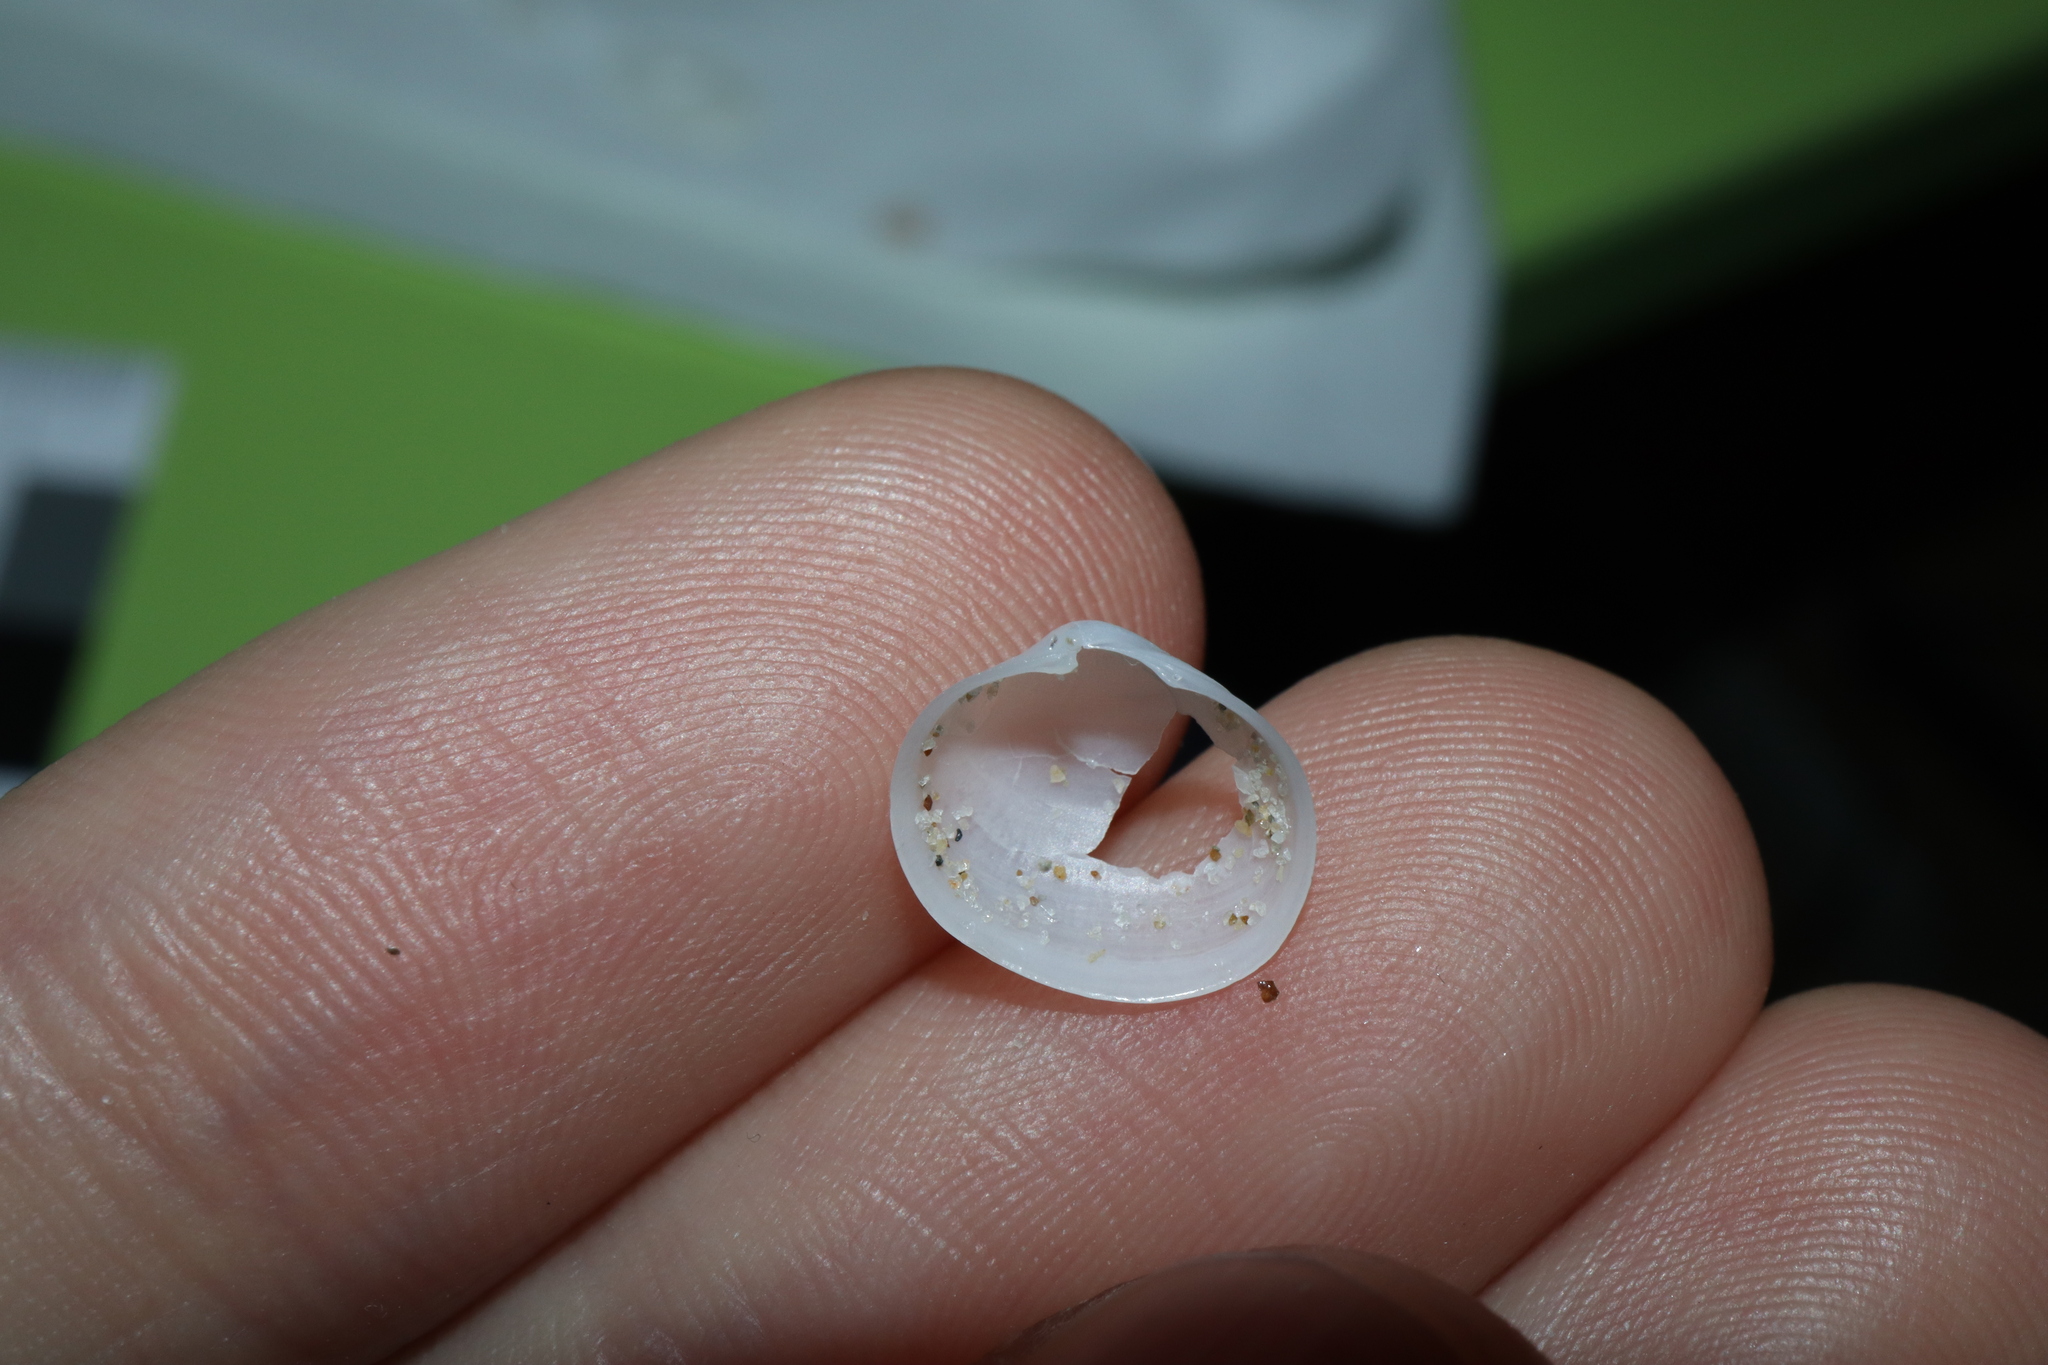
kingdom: Animalia
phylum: Mollusca
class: Bivalvia
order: Galeommatida
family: Galeommatidae
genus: Scintillula
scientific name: Scintillula solida
